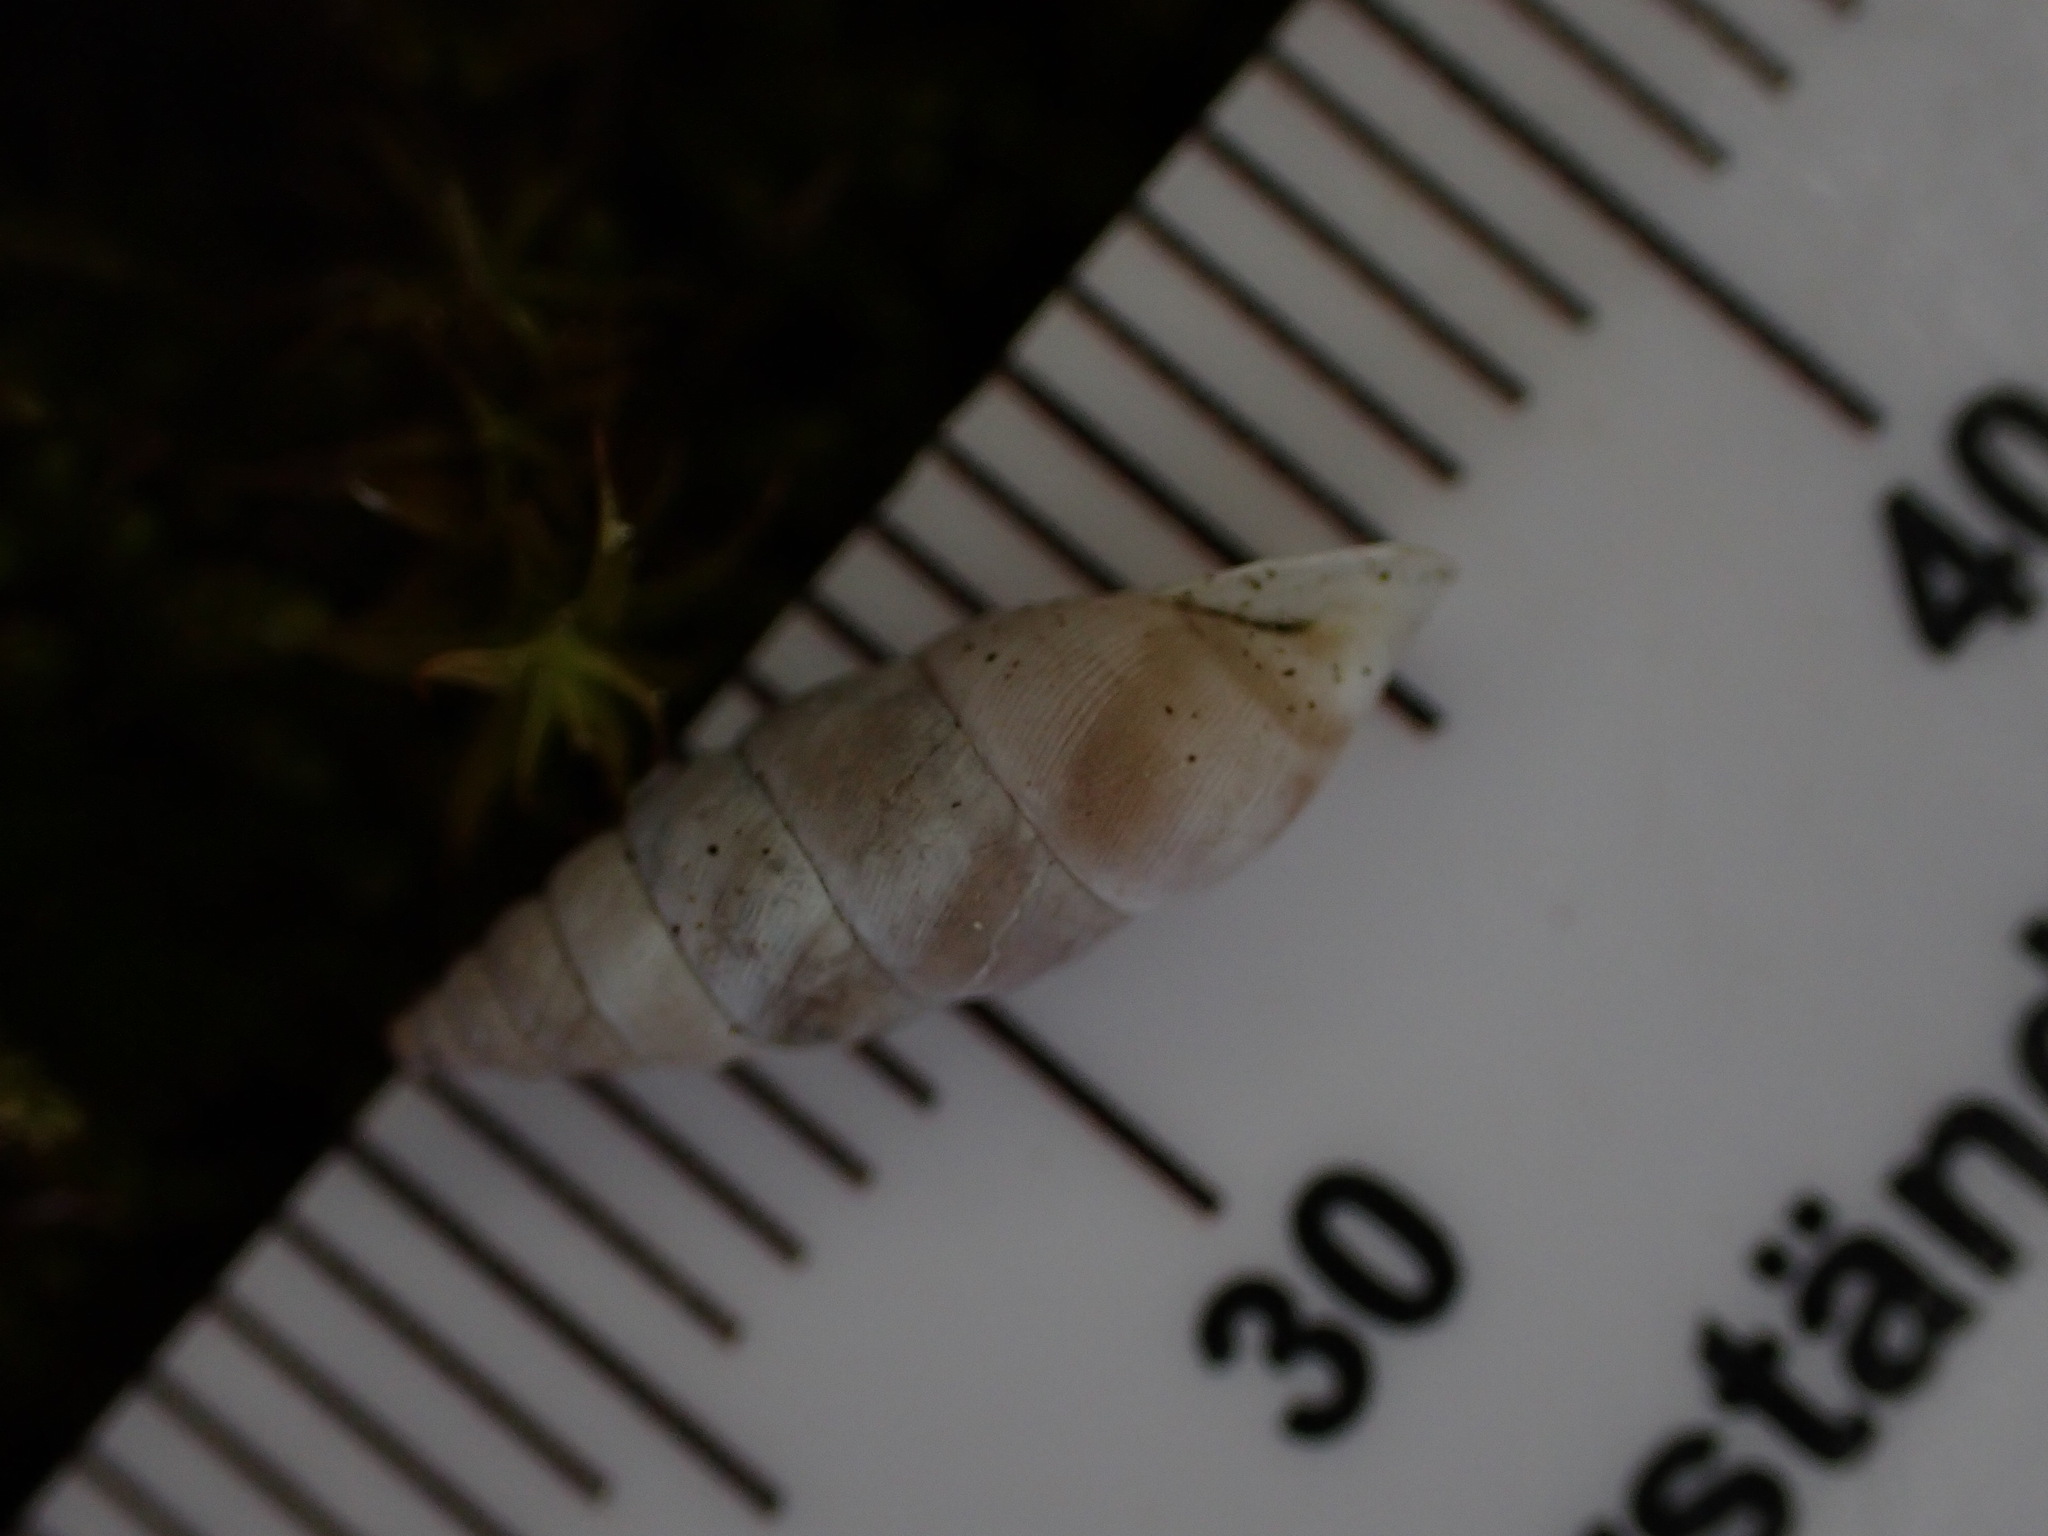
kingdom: Animalia
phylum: Mollusca
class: Gastropoda
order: Stylommatophora
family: Chondrinidae
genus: Solatopupa
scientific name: Solatopupa similis
